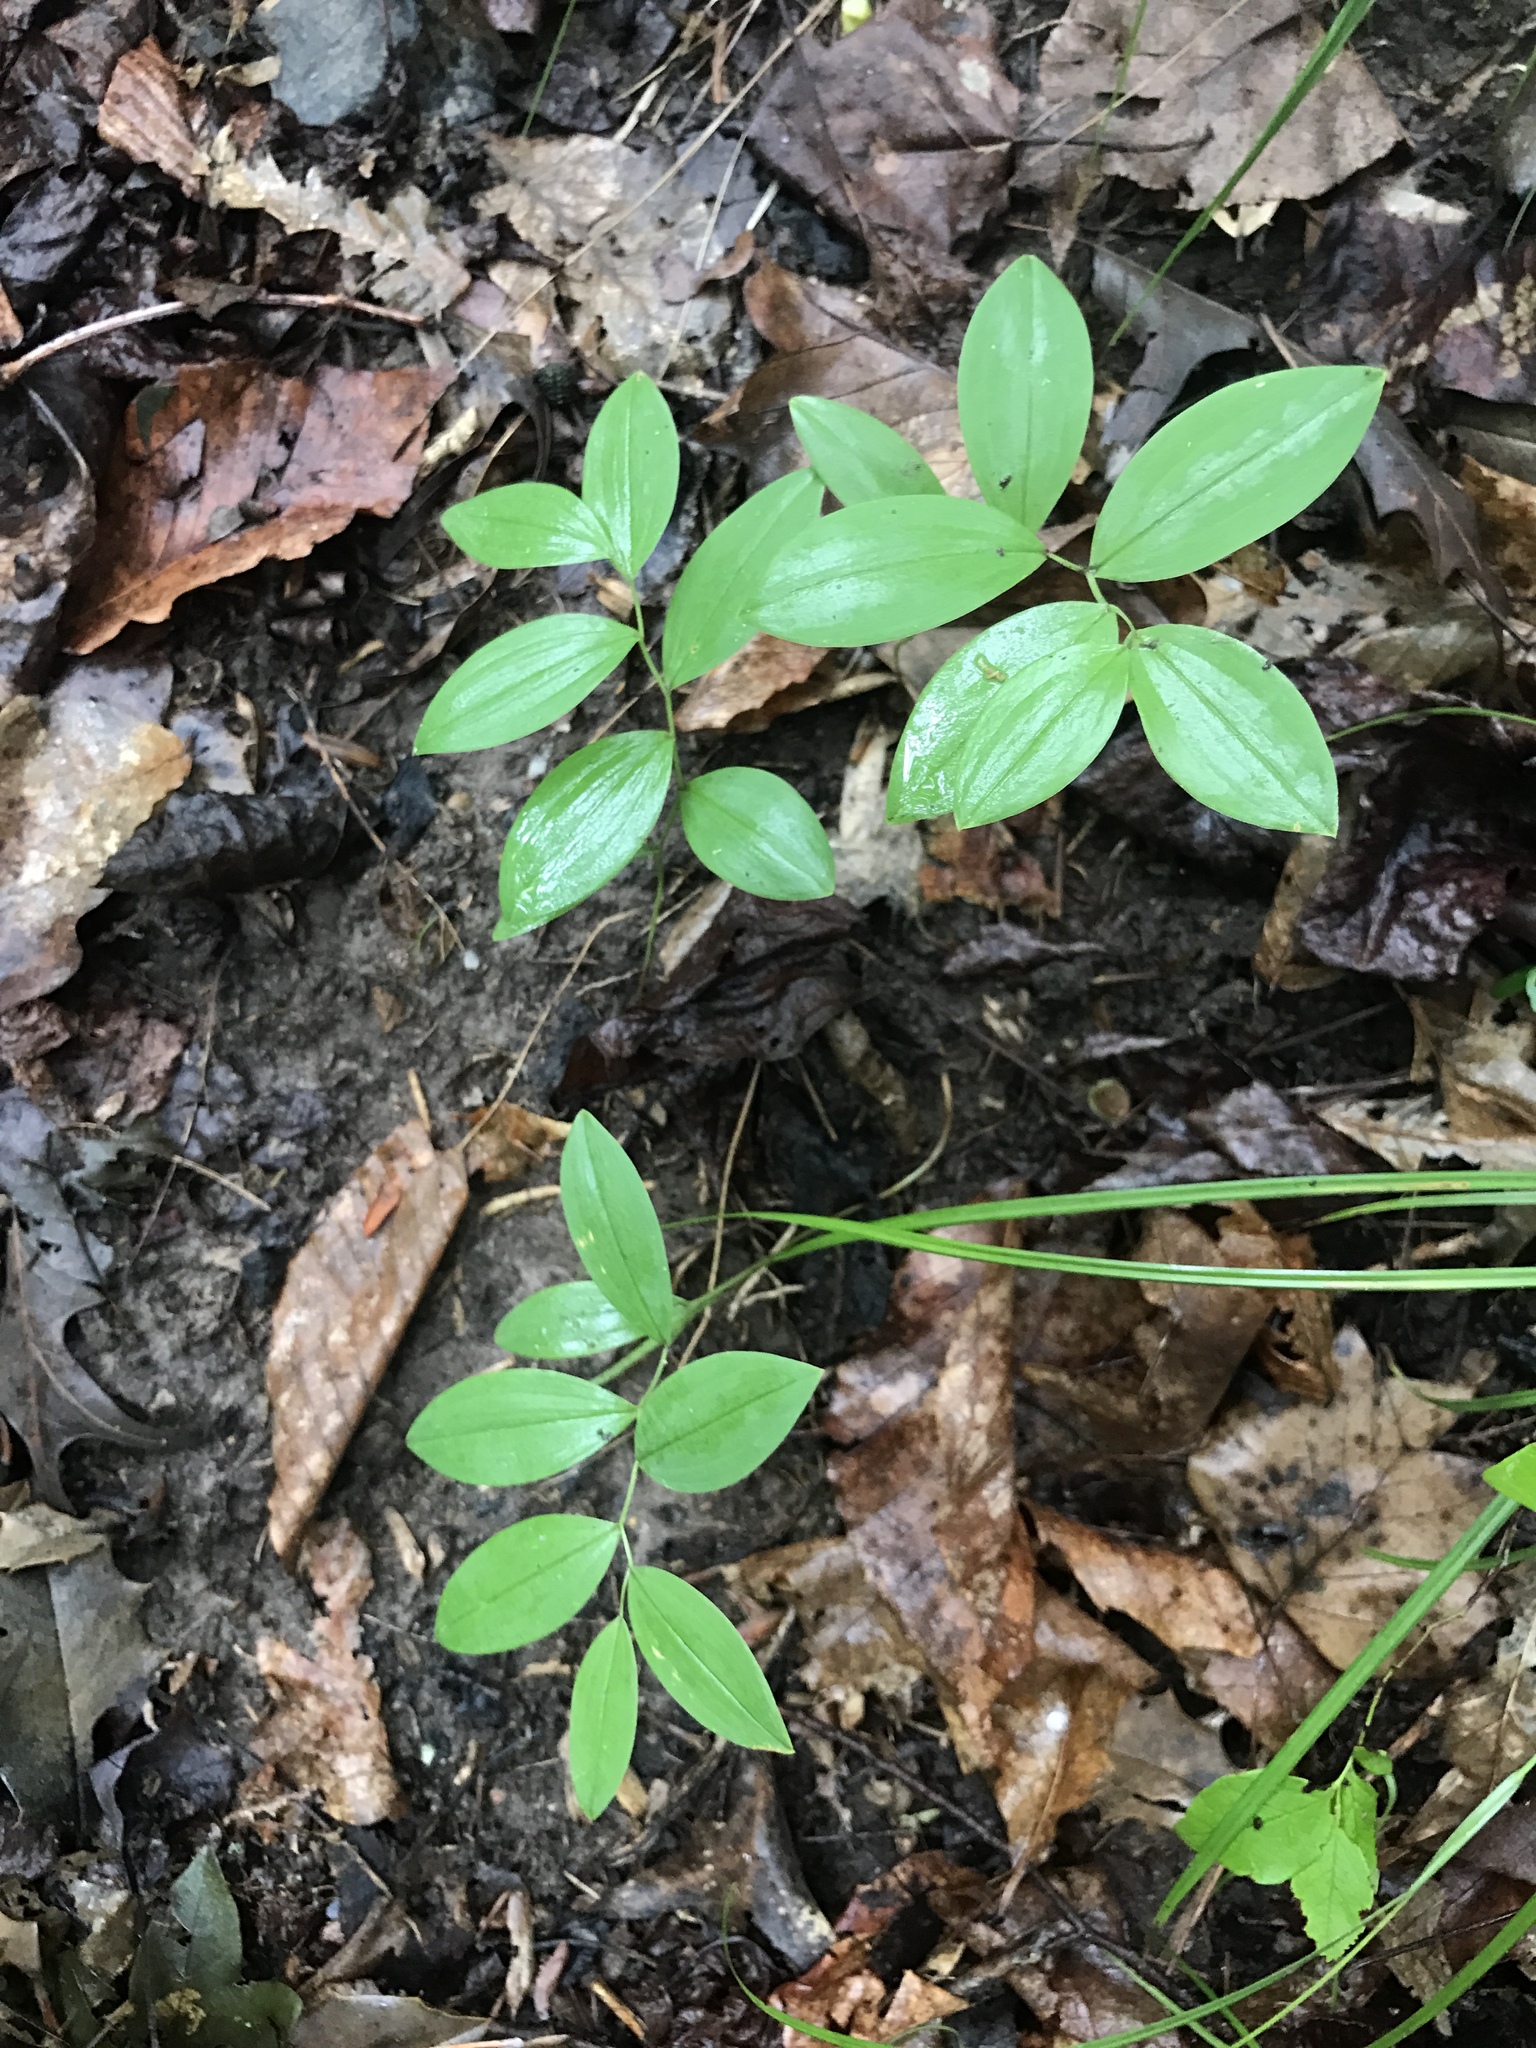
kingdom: Plantae
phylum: Tracheophyta
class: Liliopsida
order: Liliales
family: Colchicaceae
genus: Uvularia
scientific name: Uvularia sessilifolia
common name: Straw-lily
